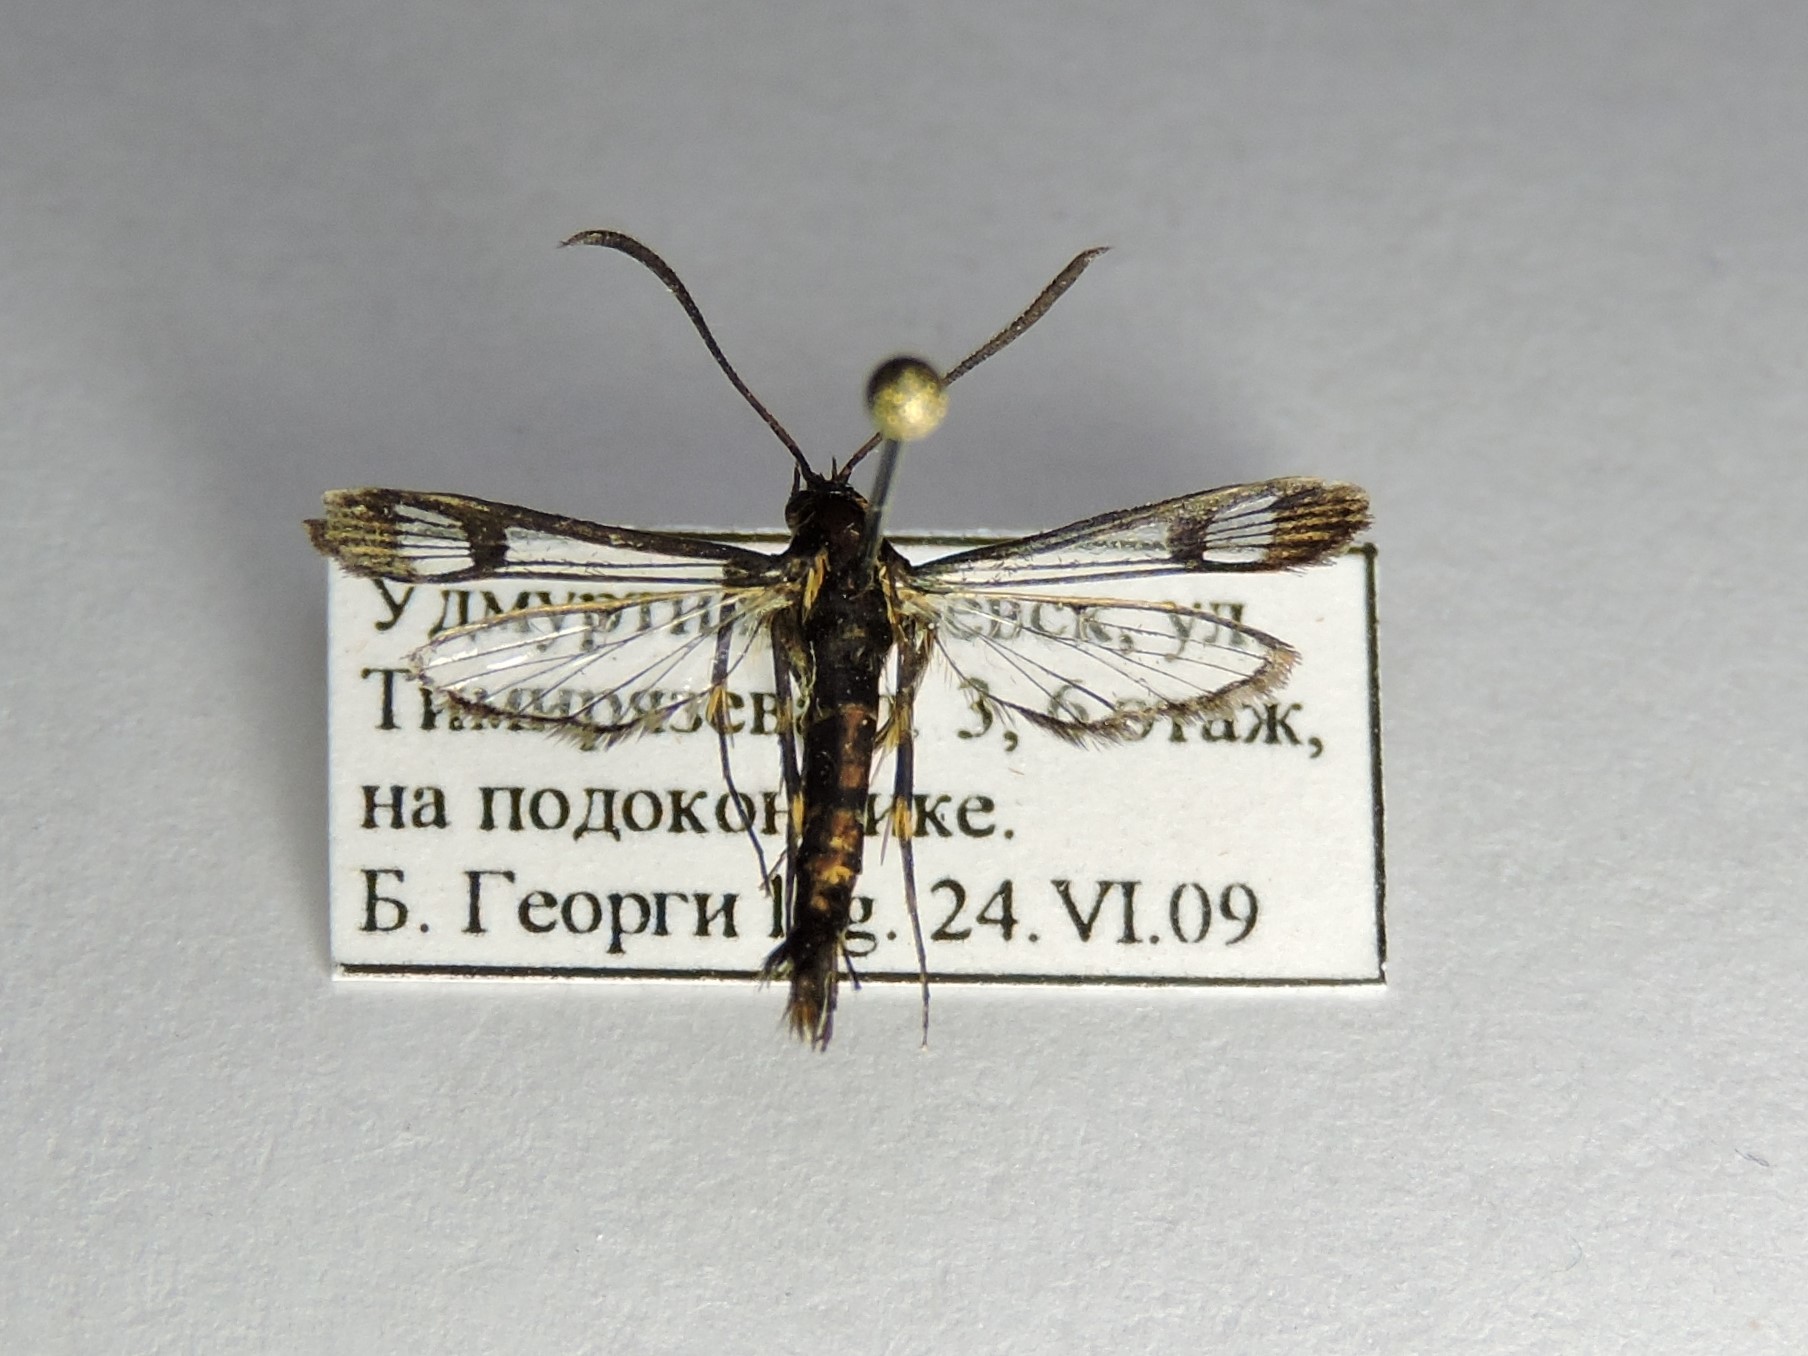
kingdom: Animalia
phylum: Arthropoda
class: Insecta
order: Lepidoptera
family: Sesiidae
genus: Synanthedon
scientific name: Synanthedon tipuliformis
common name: Currant clearwing
